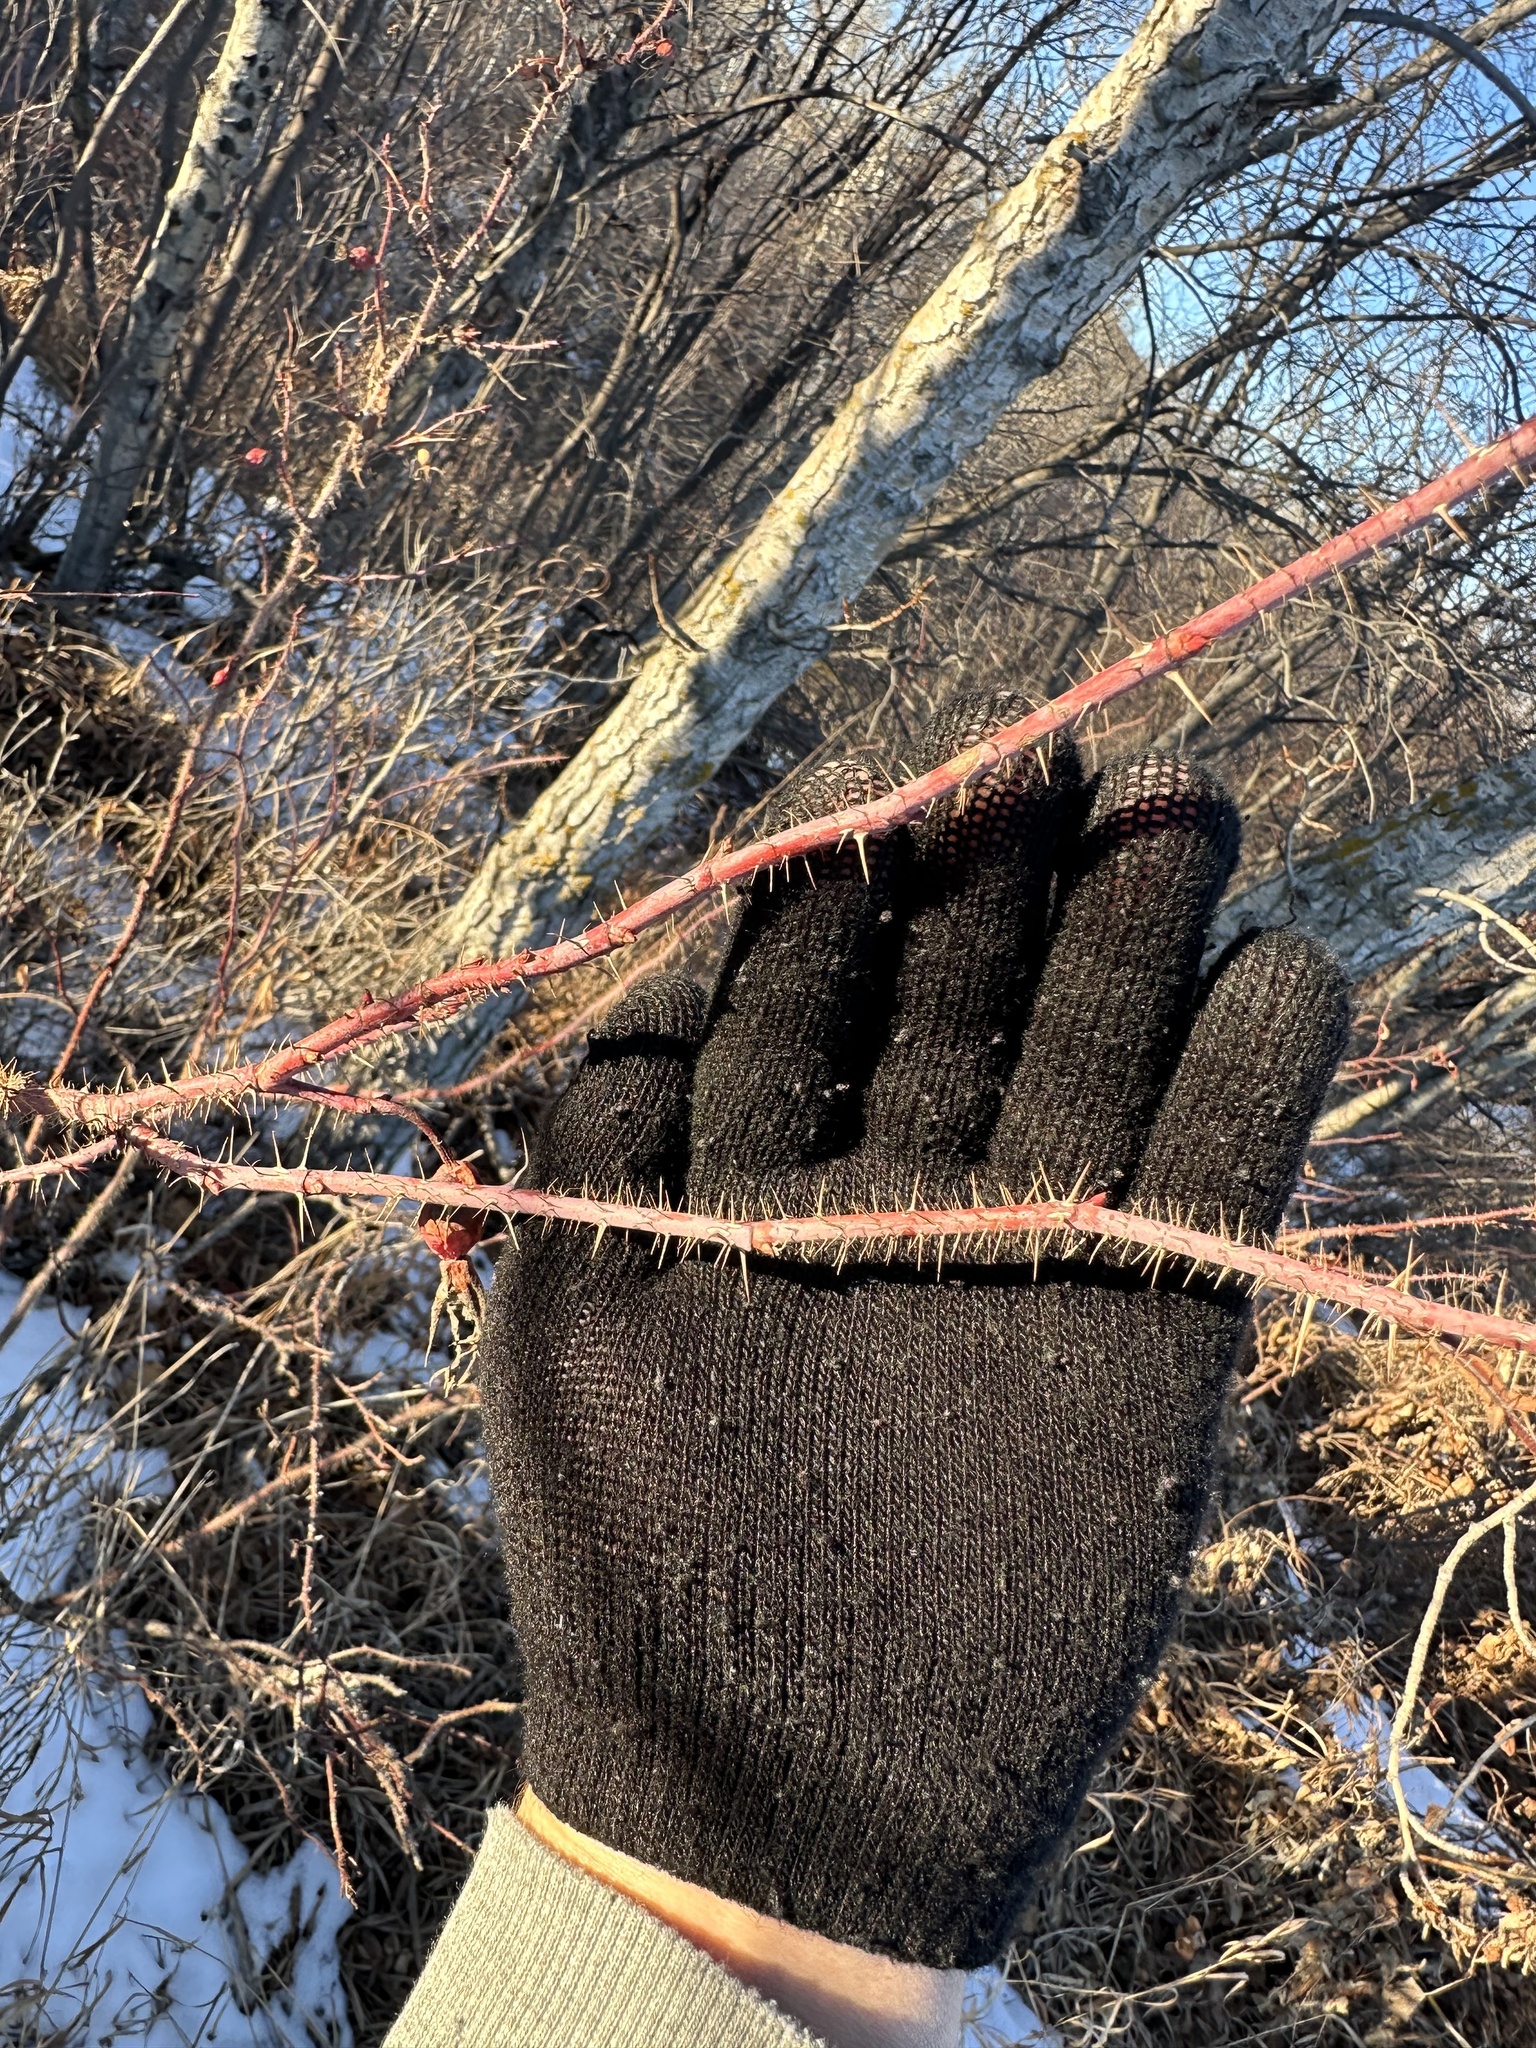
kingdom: Plantae
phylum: Tracheophyta
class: Magnoliopsida
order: Rosales
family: Rosaceae
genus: Rosa
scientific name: Rosa acicularis
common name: Prickly rose
